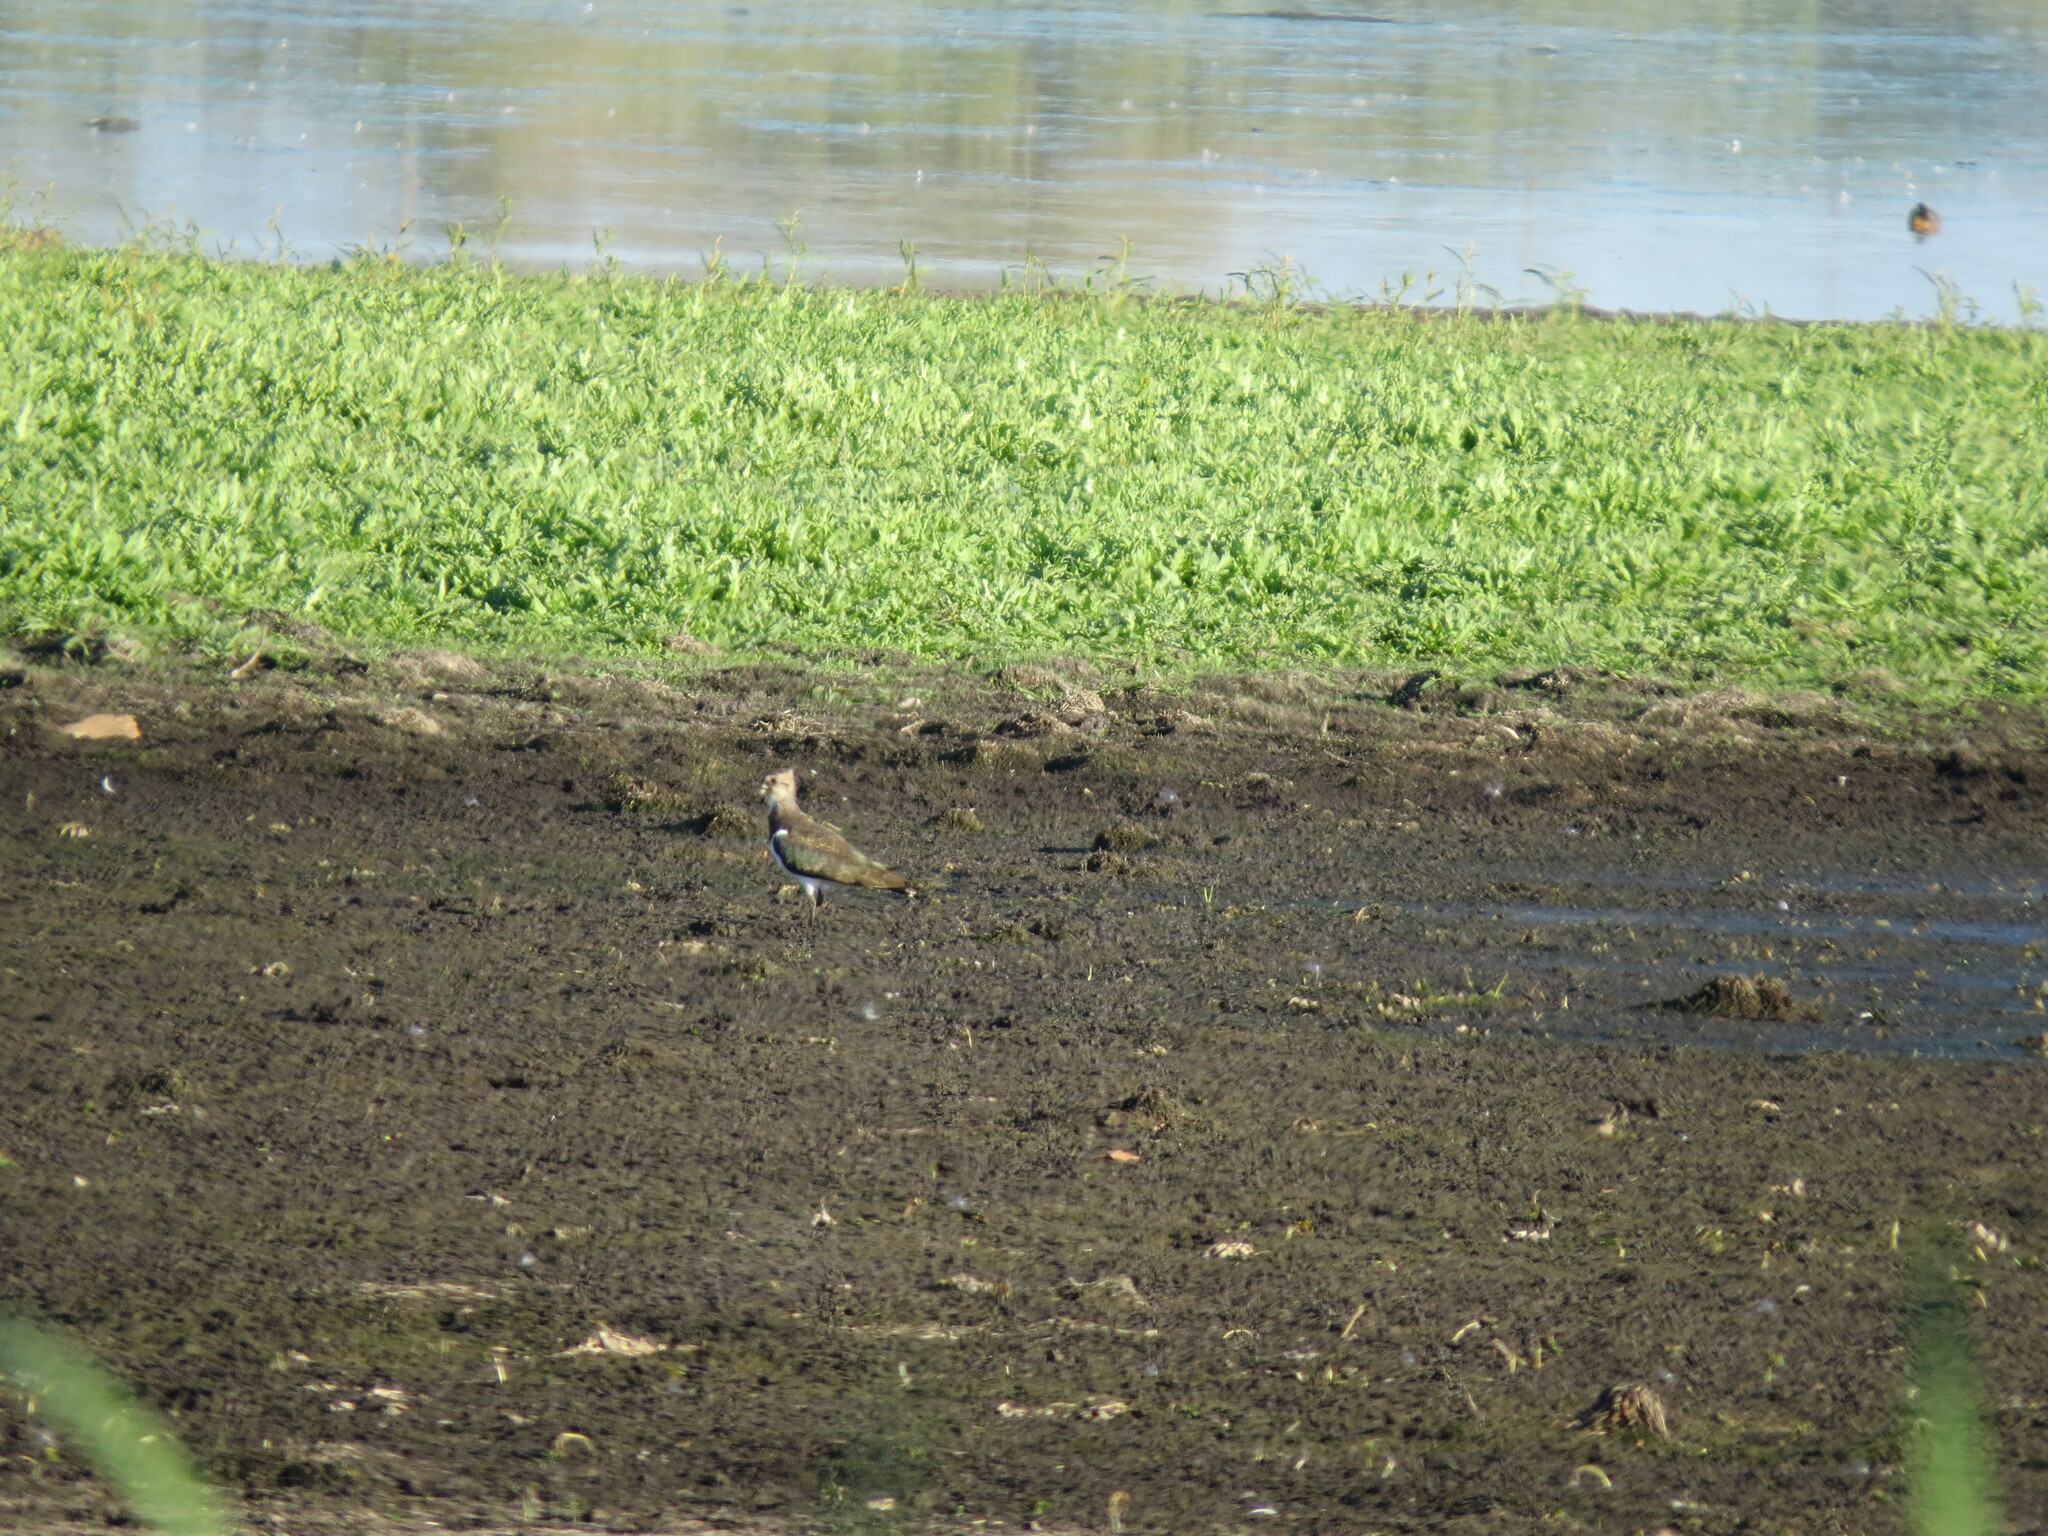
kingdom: Animalia
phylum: Chordata
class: Aves
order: Charadriiformes
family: Charadriidae
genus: Vanellus
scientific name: Vanellus vanellus
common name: Northern lapwing
